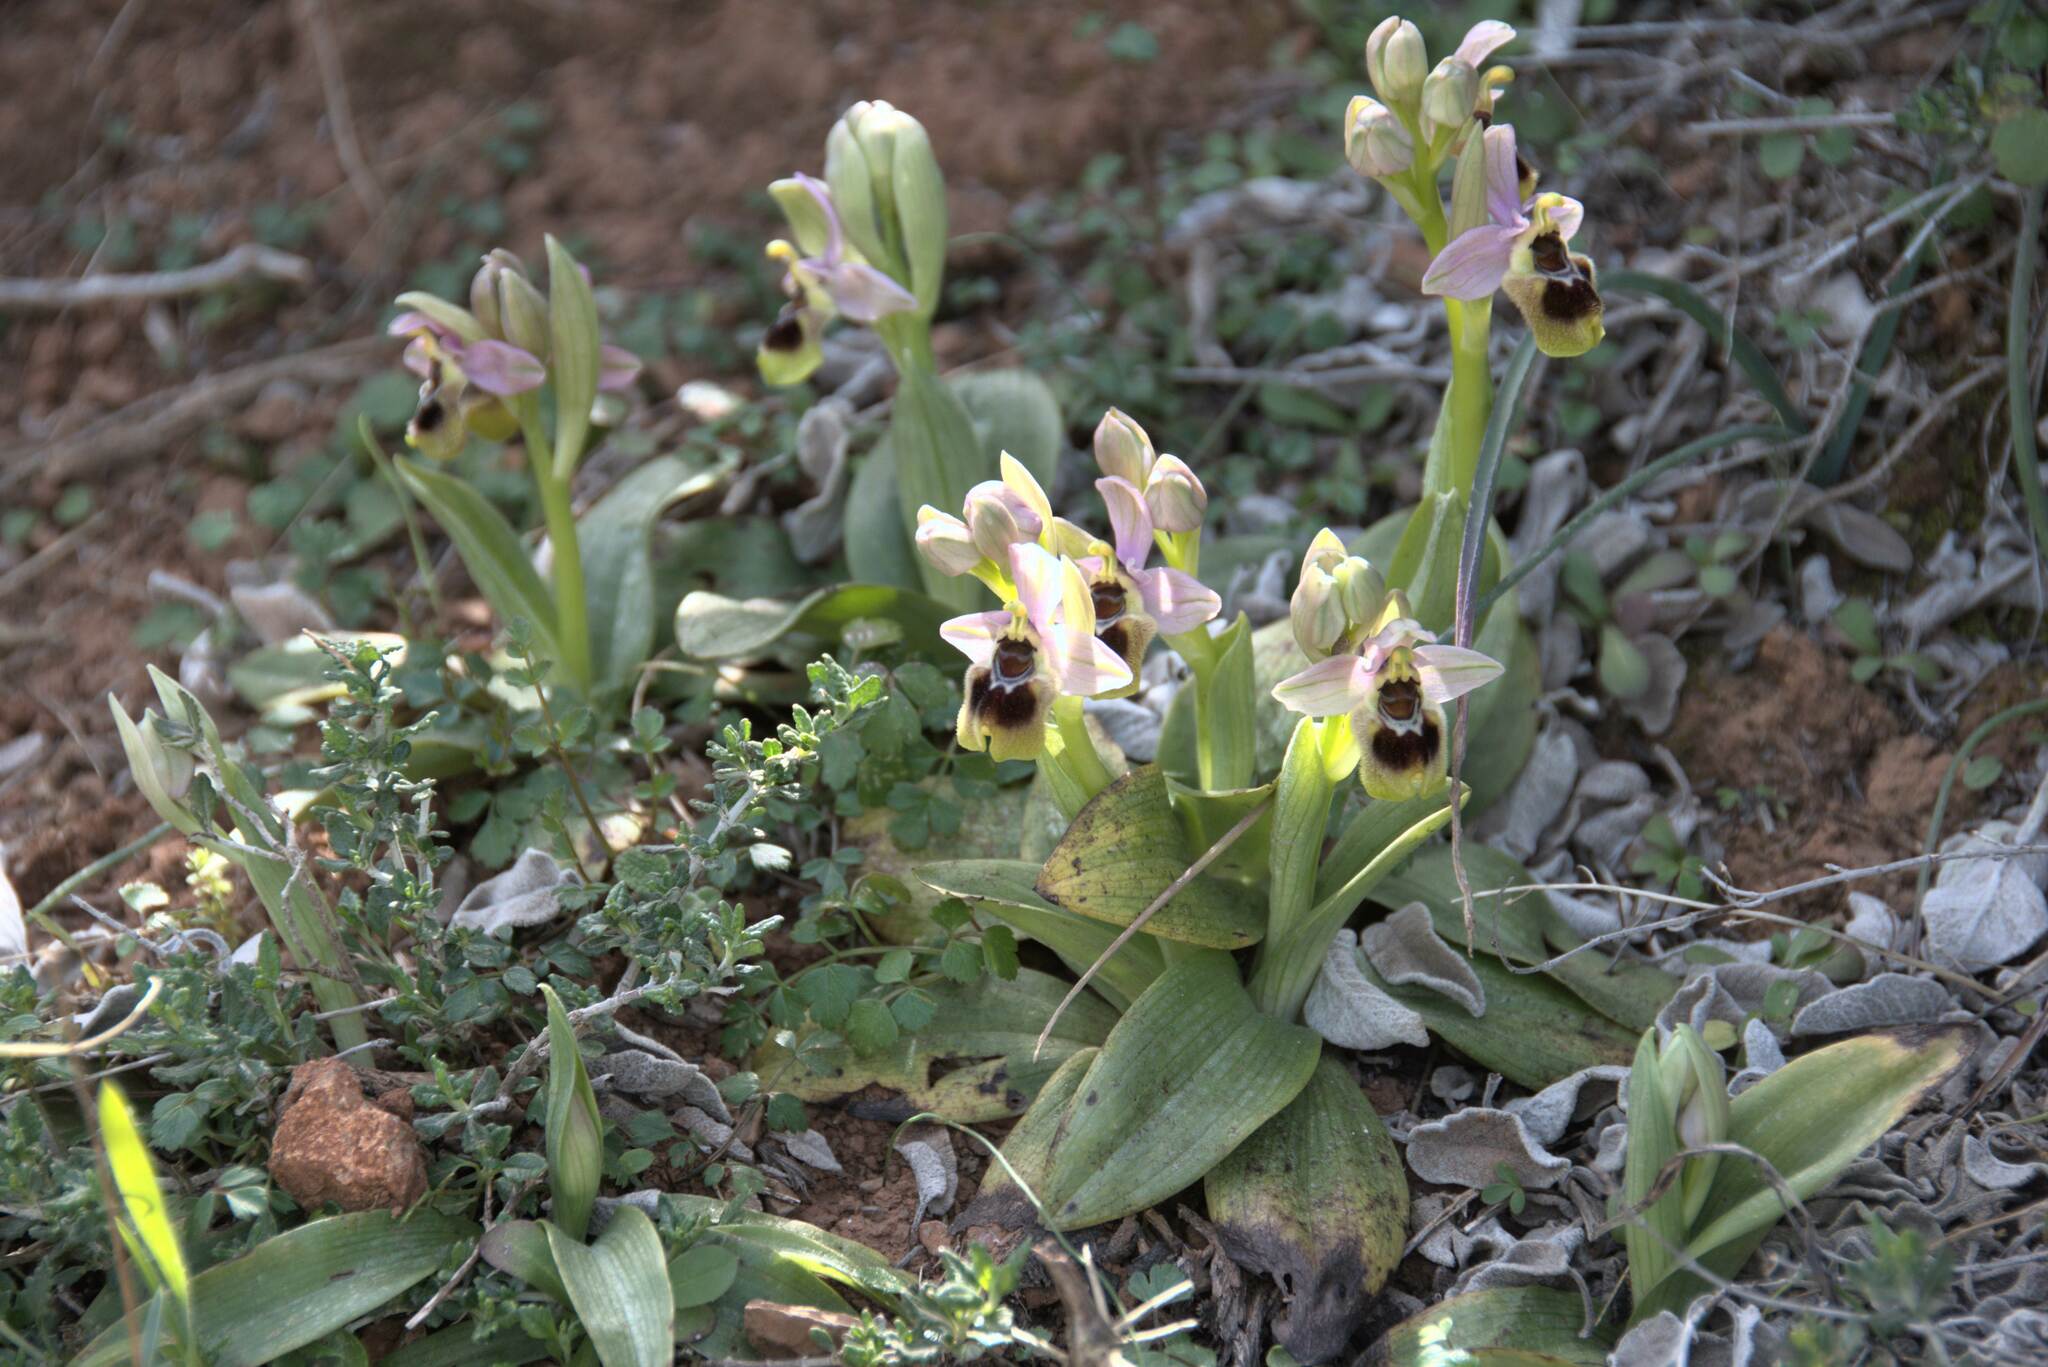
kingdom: Plantae
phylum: Tracheophyta
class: Liliopsida
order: Asparagales
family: Orchidaceae
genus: Ophrys
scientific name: Ophrys tenthredinifera
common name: Sawfly orchid
